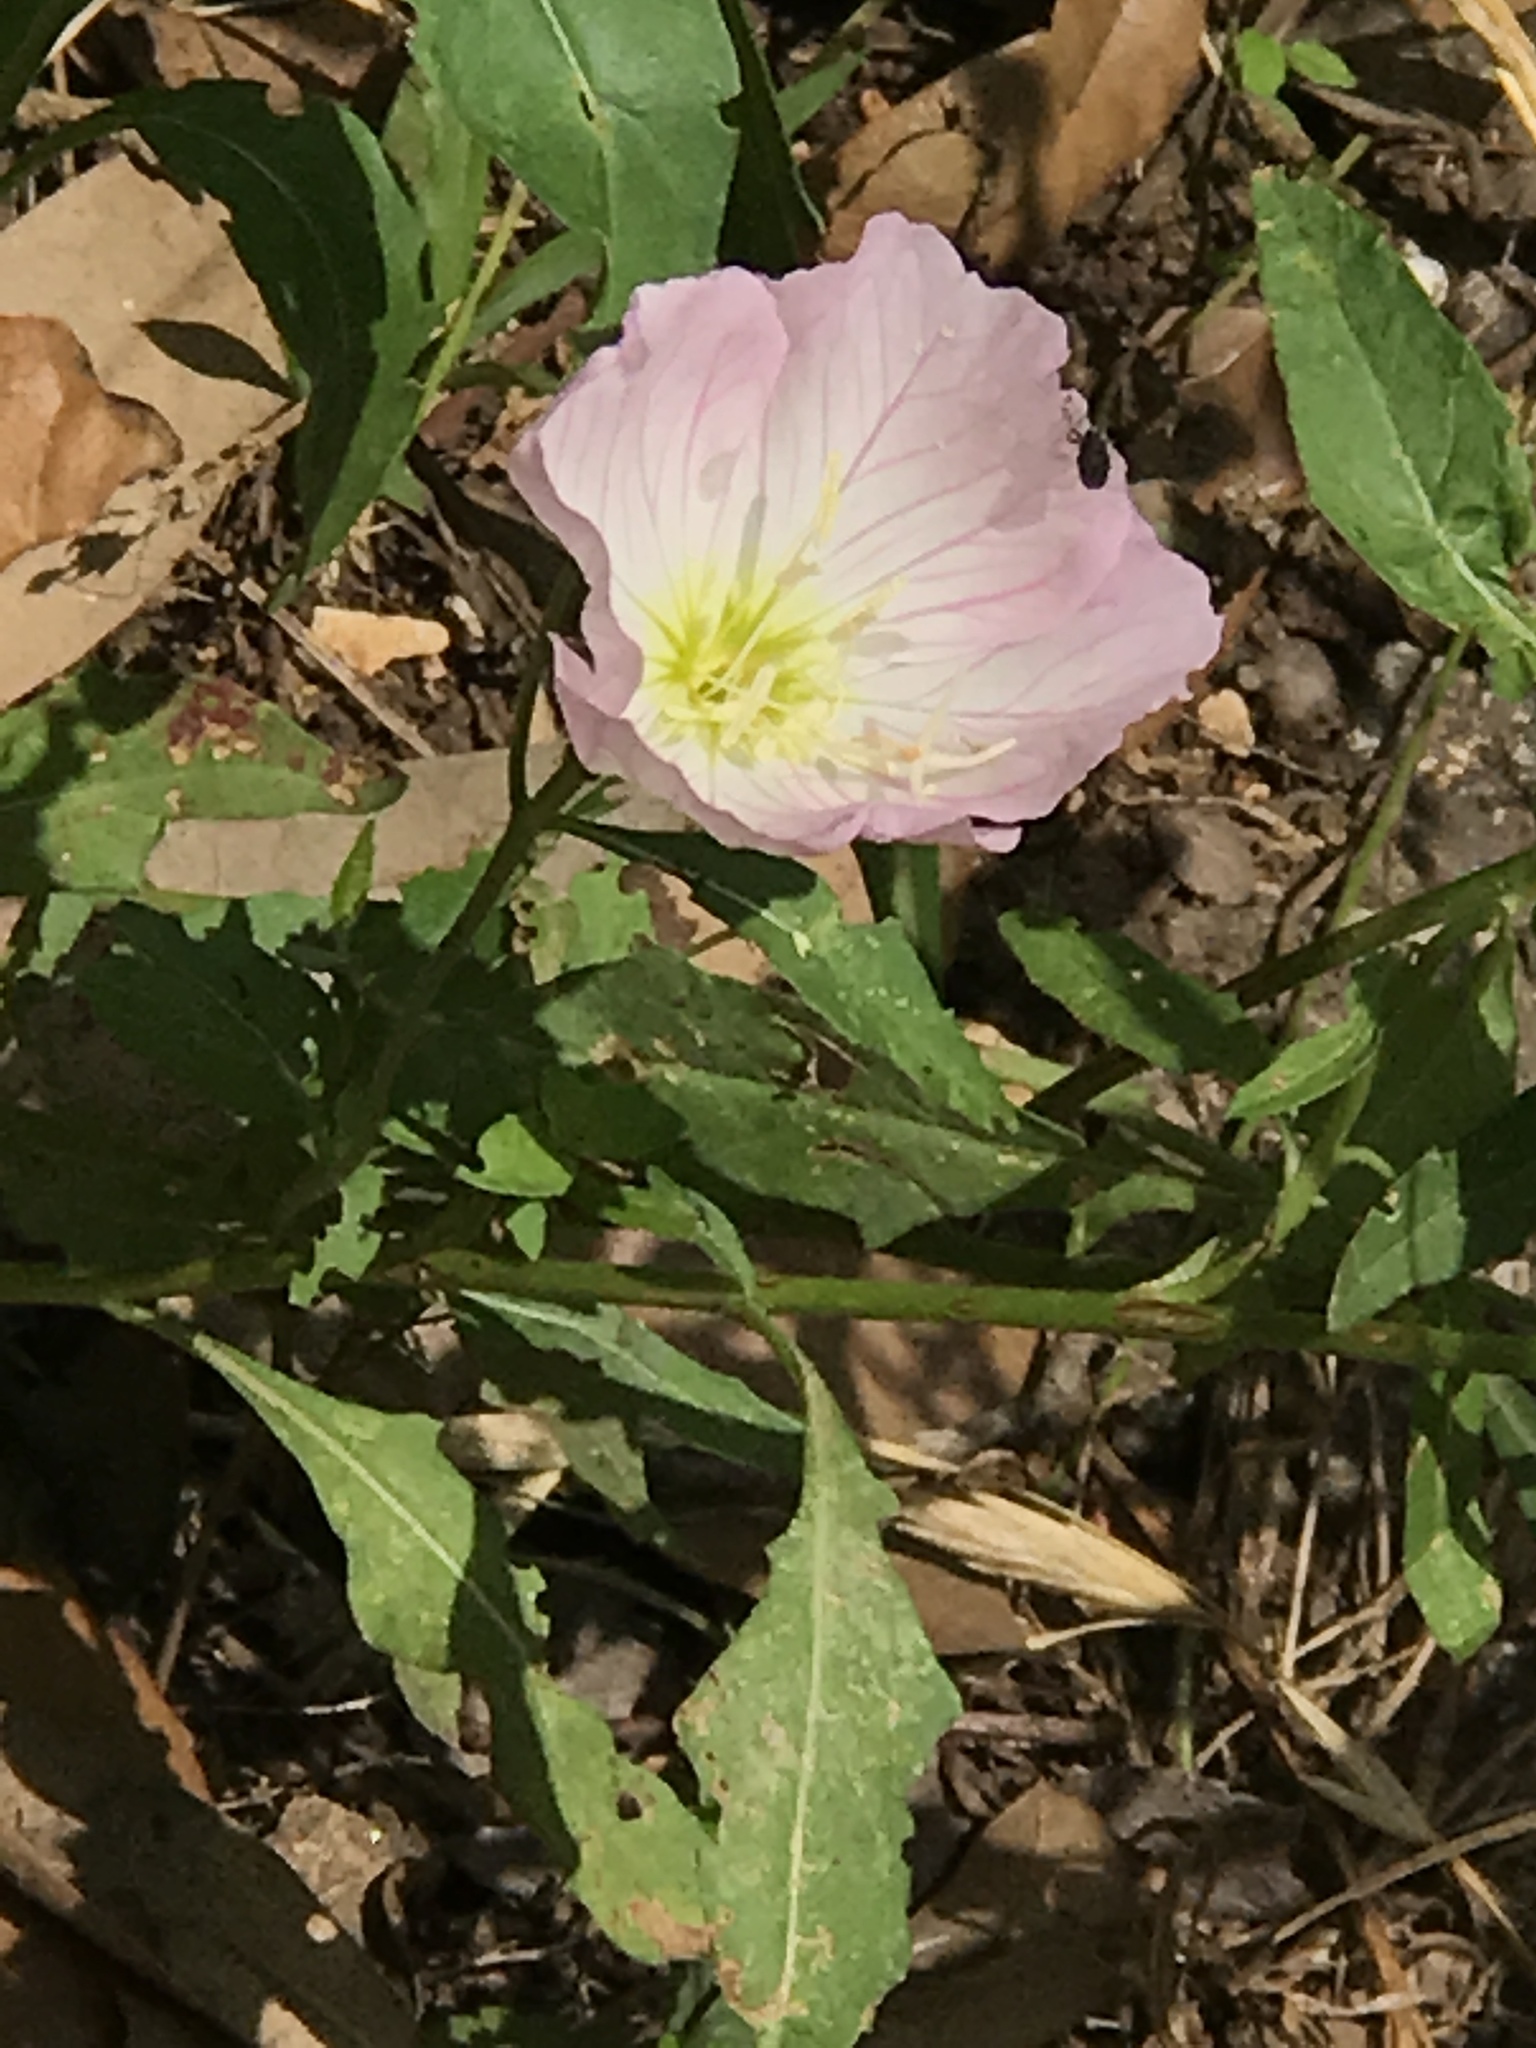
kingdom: Plantae
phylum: Tracheophyta
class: Magnoliopsida
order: Myrtales
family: Onagraceae
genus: Oenothera
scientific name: Oenothera speciosa
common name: White evening-primrose
